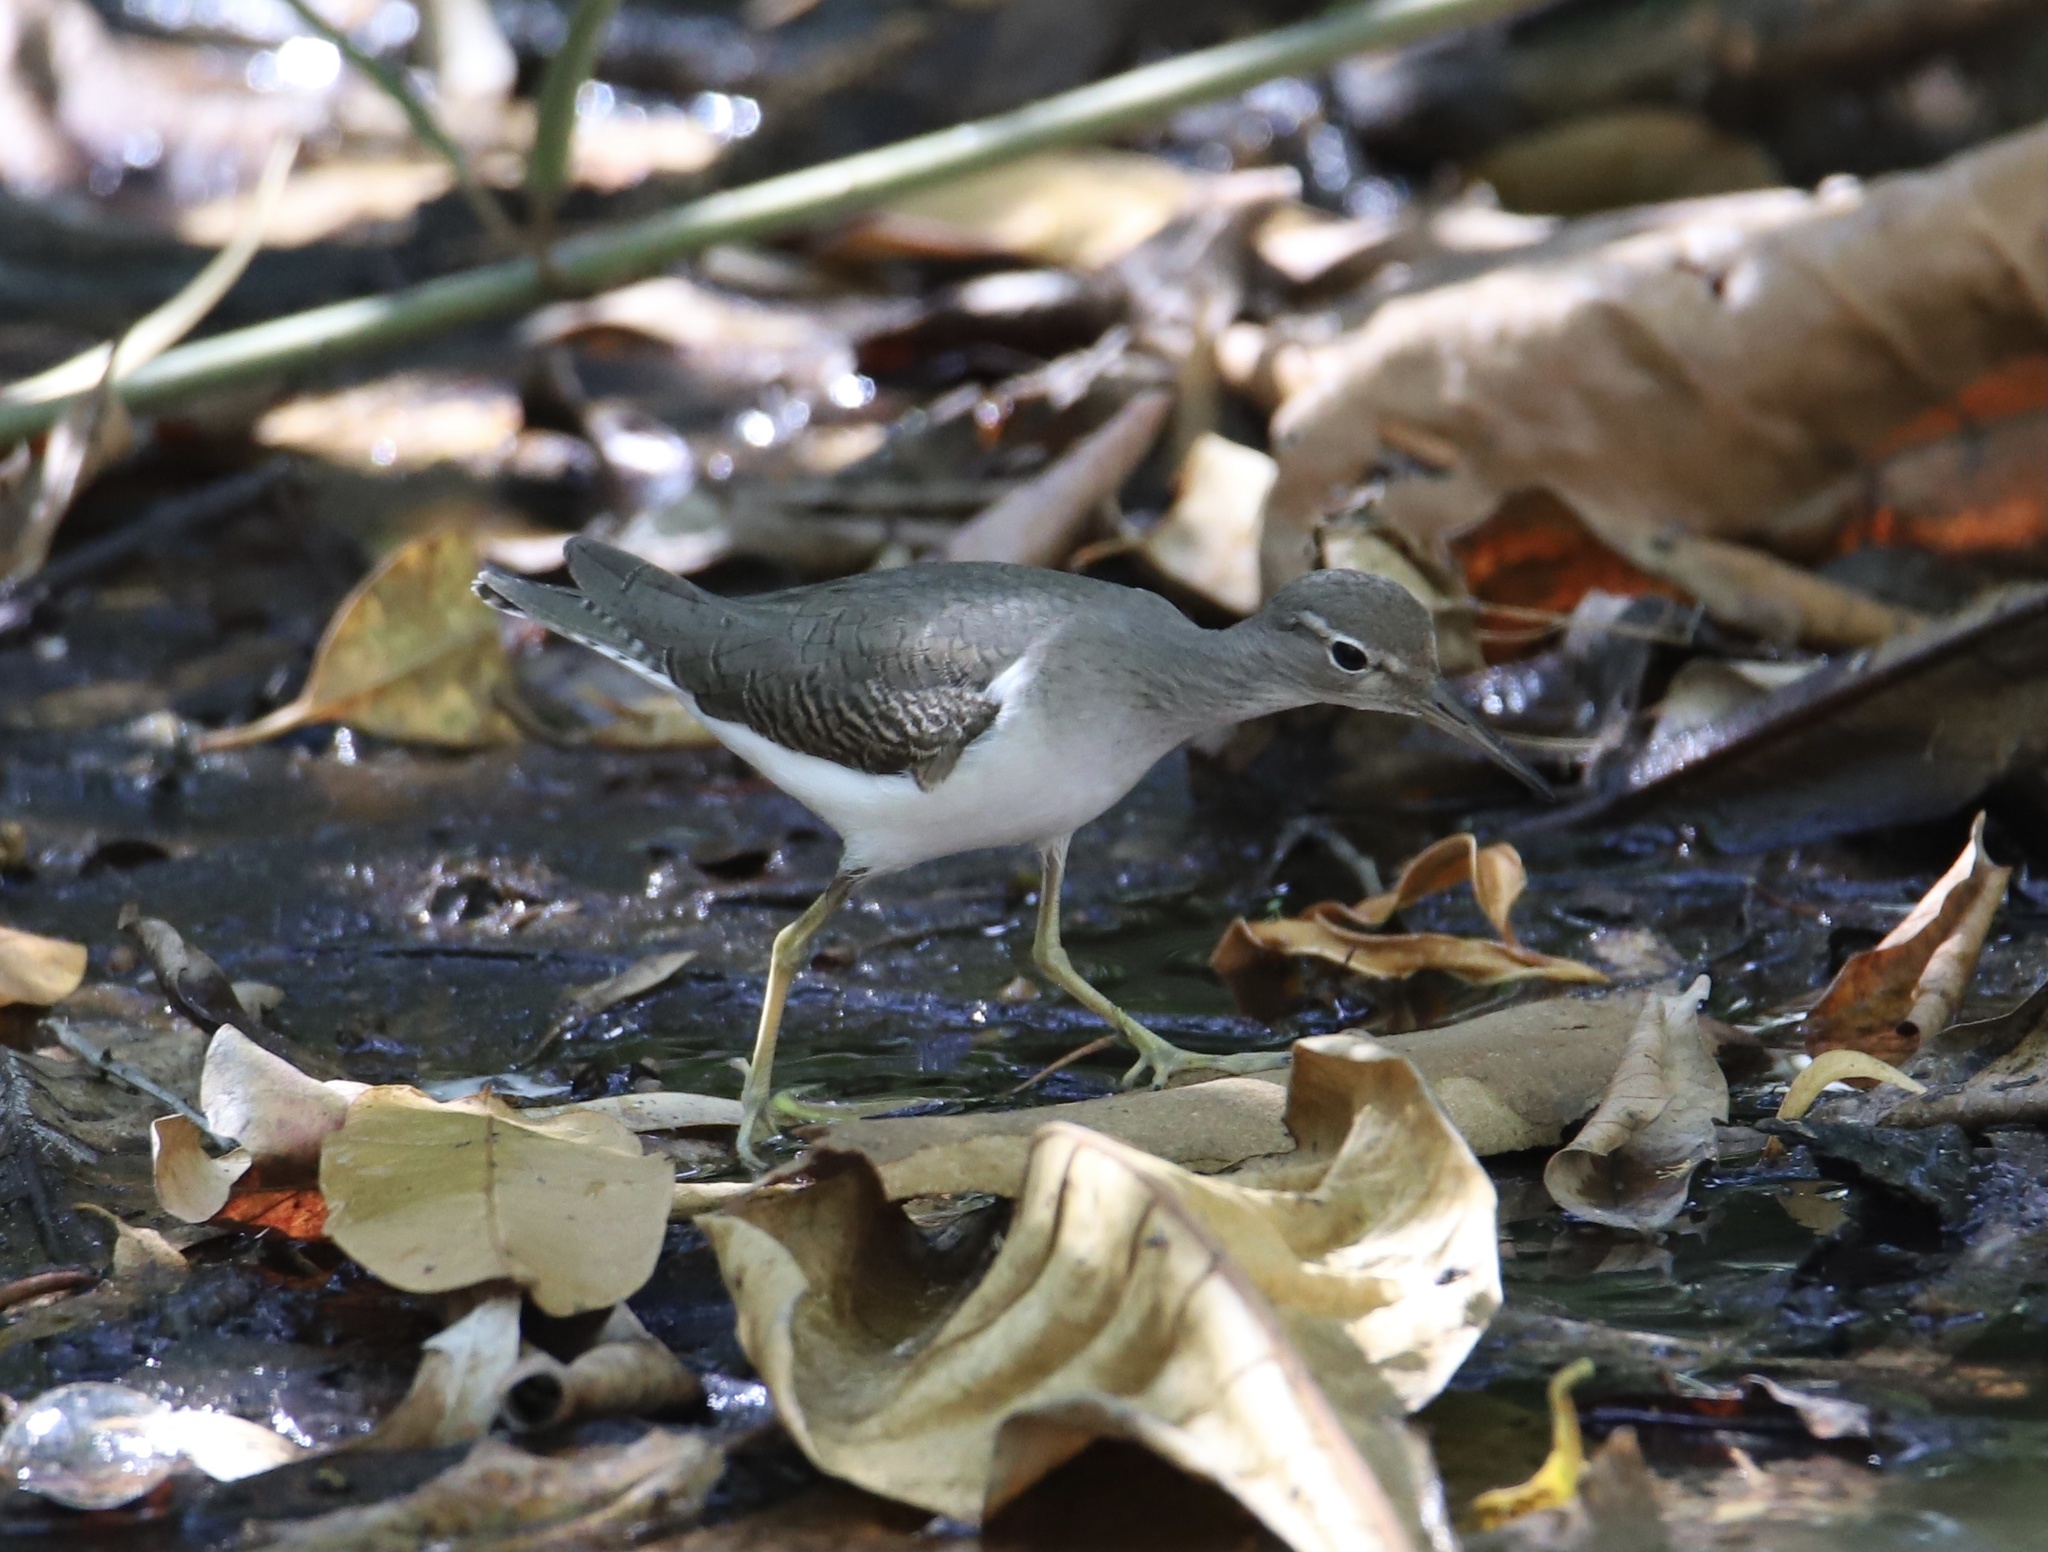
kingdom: Animalia
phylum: Chordata
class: Aves
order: Charadriiformes
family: Scolopacidae
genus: Actitis
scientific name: Actitis macularius
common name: Spotted sandpiper
